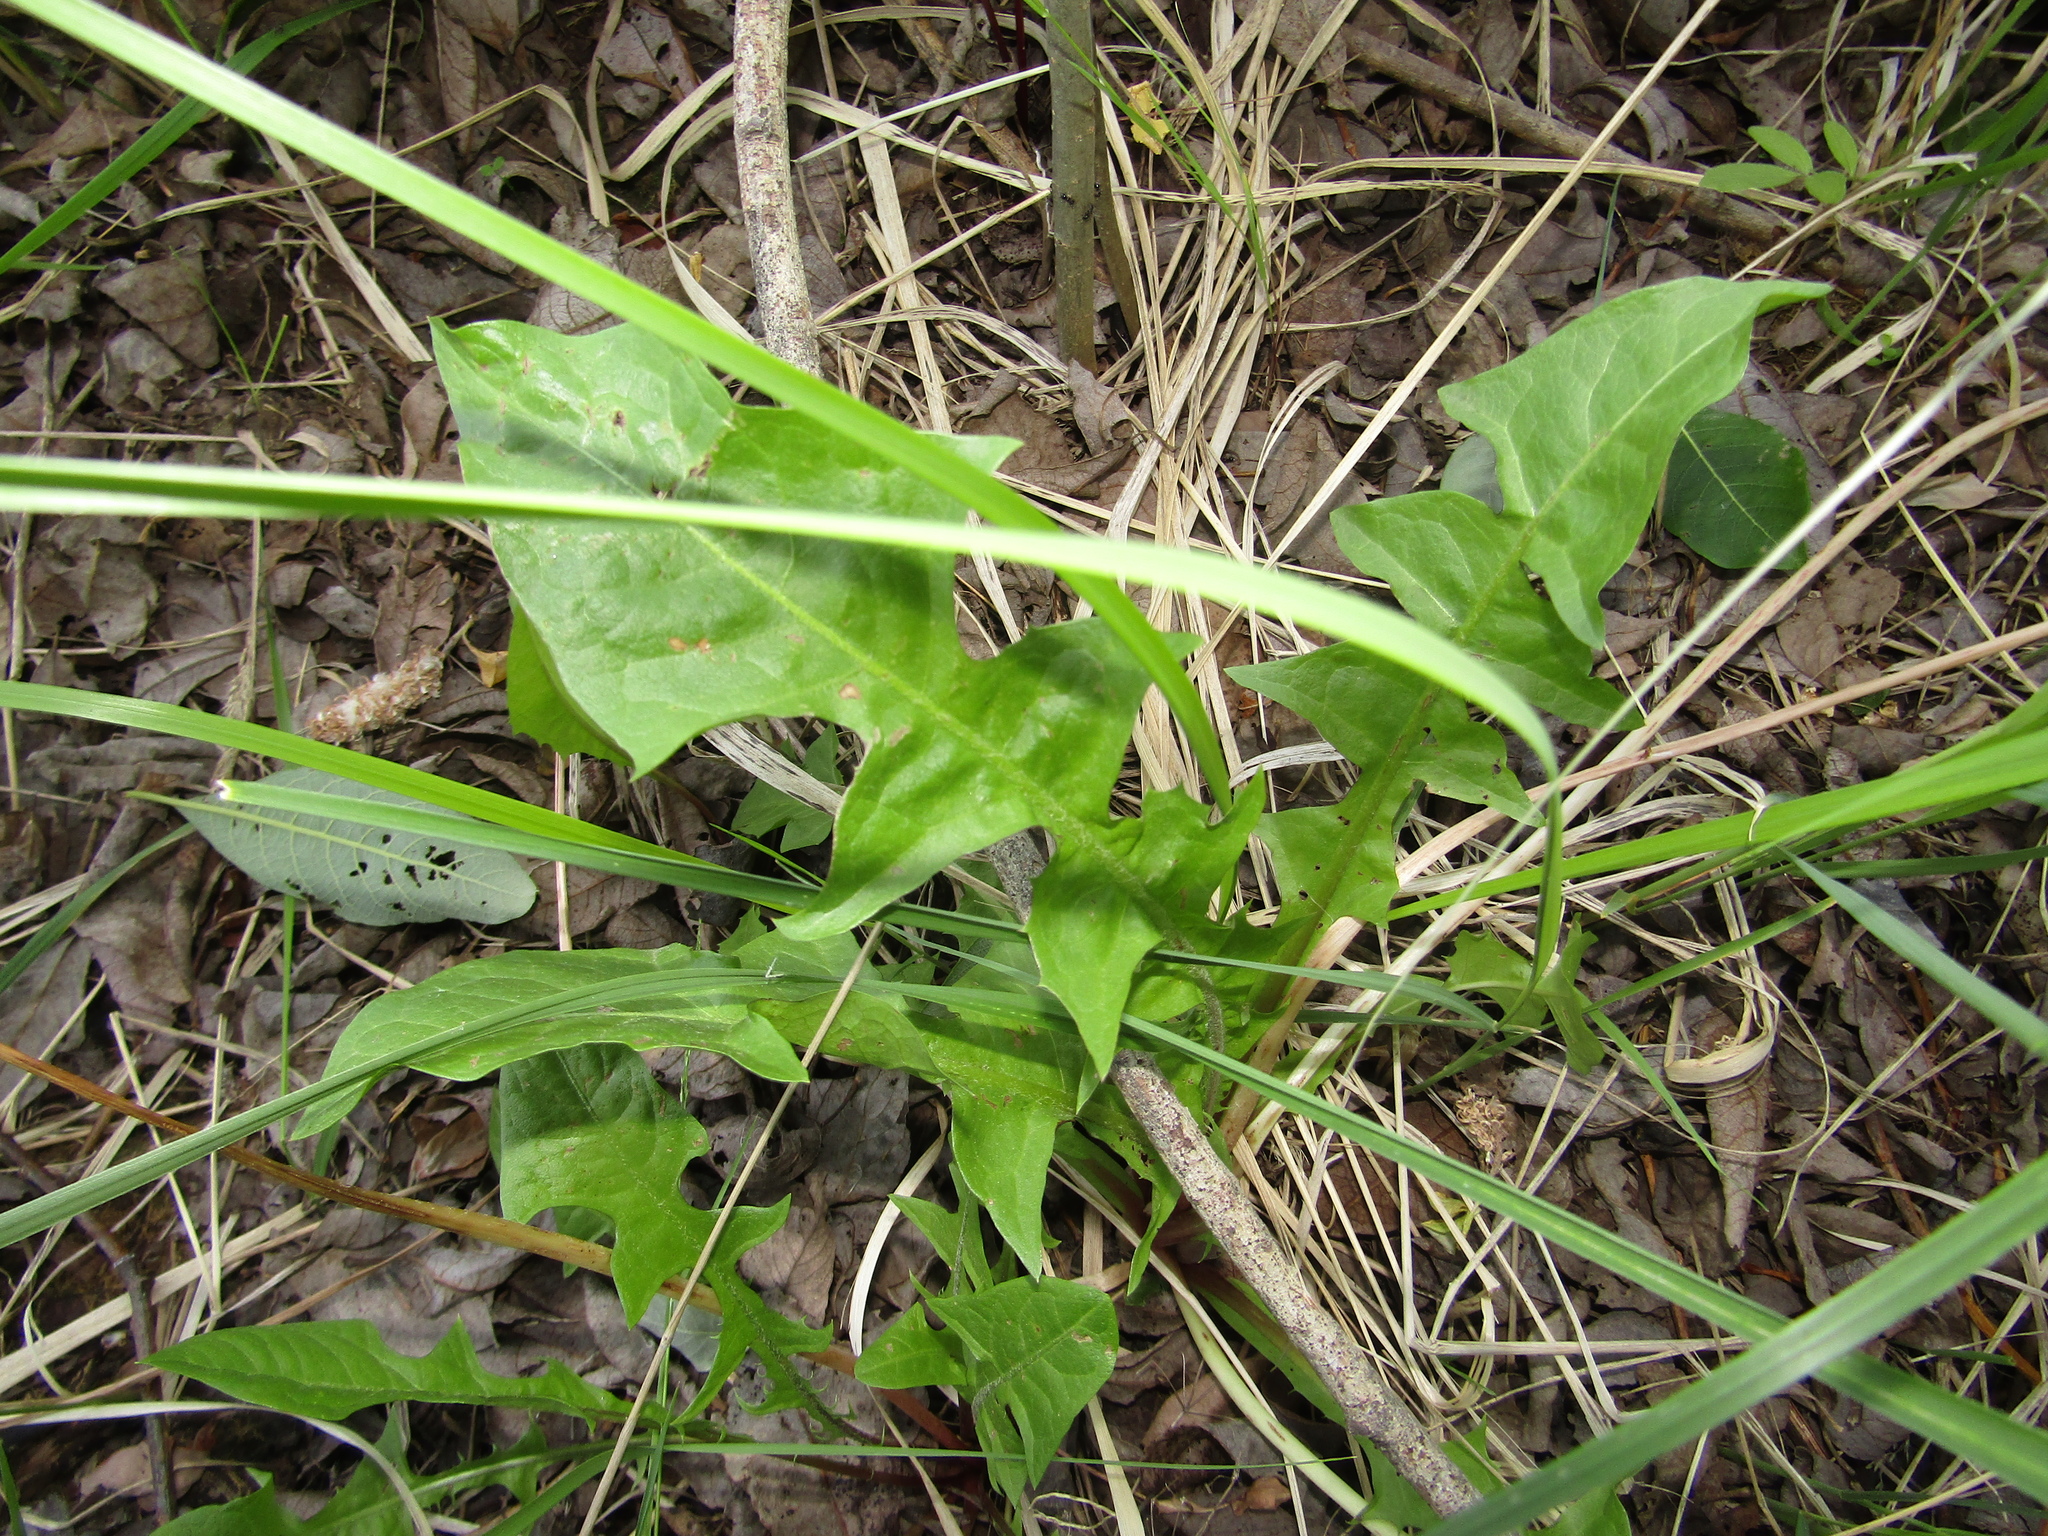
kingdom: Plantae
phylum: Tracheophyta
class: Magnoliopsida
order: Asterales
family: Asteraceae
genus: Taraxacum
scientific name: Taraxacum officinale
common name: Common dandelion
